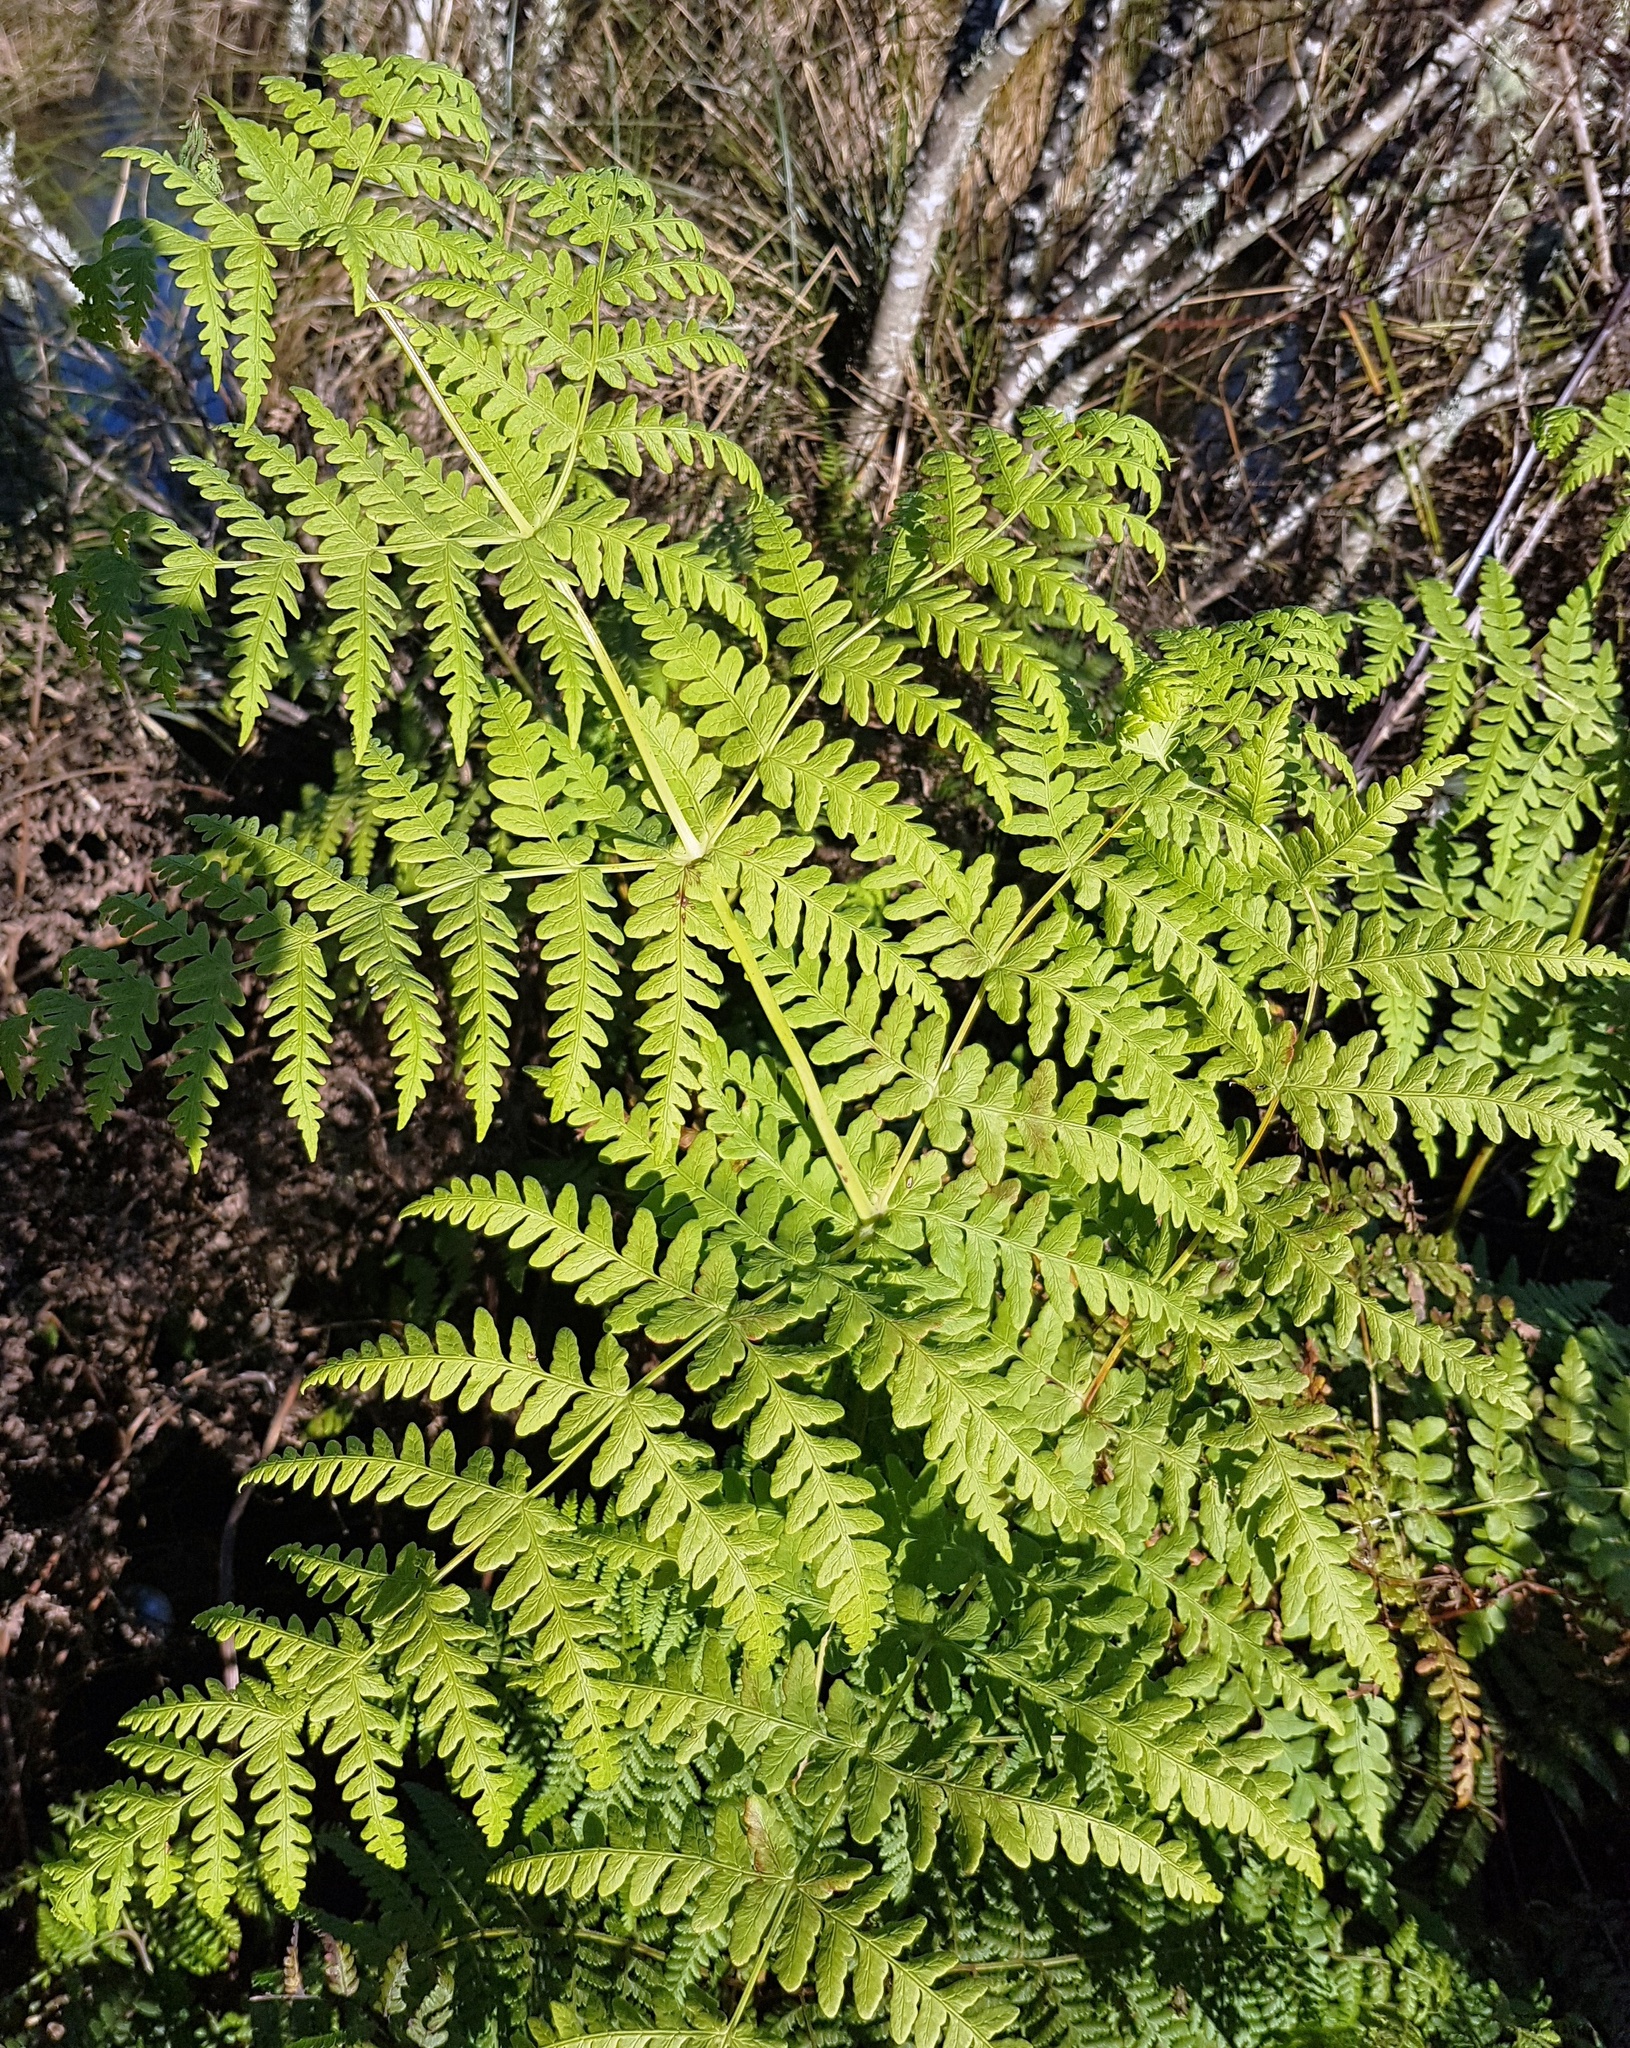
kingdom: Plantae
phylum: Tracheophyta
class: Polypodiopsida
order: Polypodiales
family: Dennstaedtiaceae
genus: Histiopteris
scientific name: Histiopteris incisa
